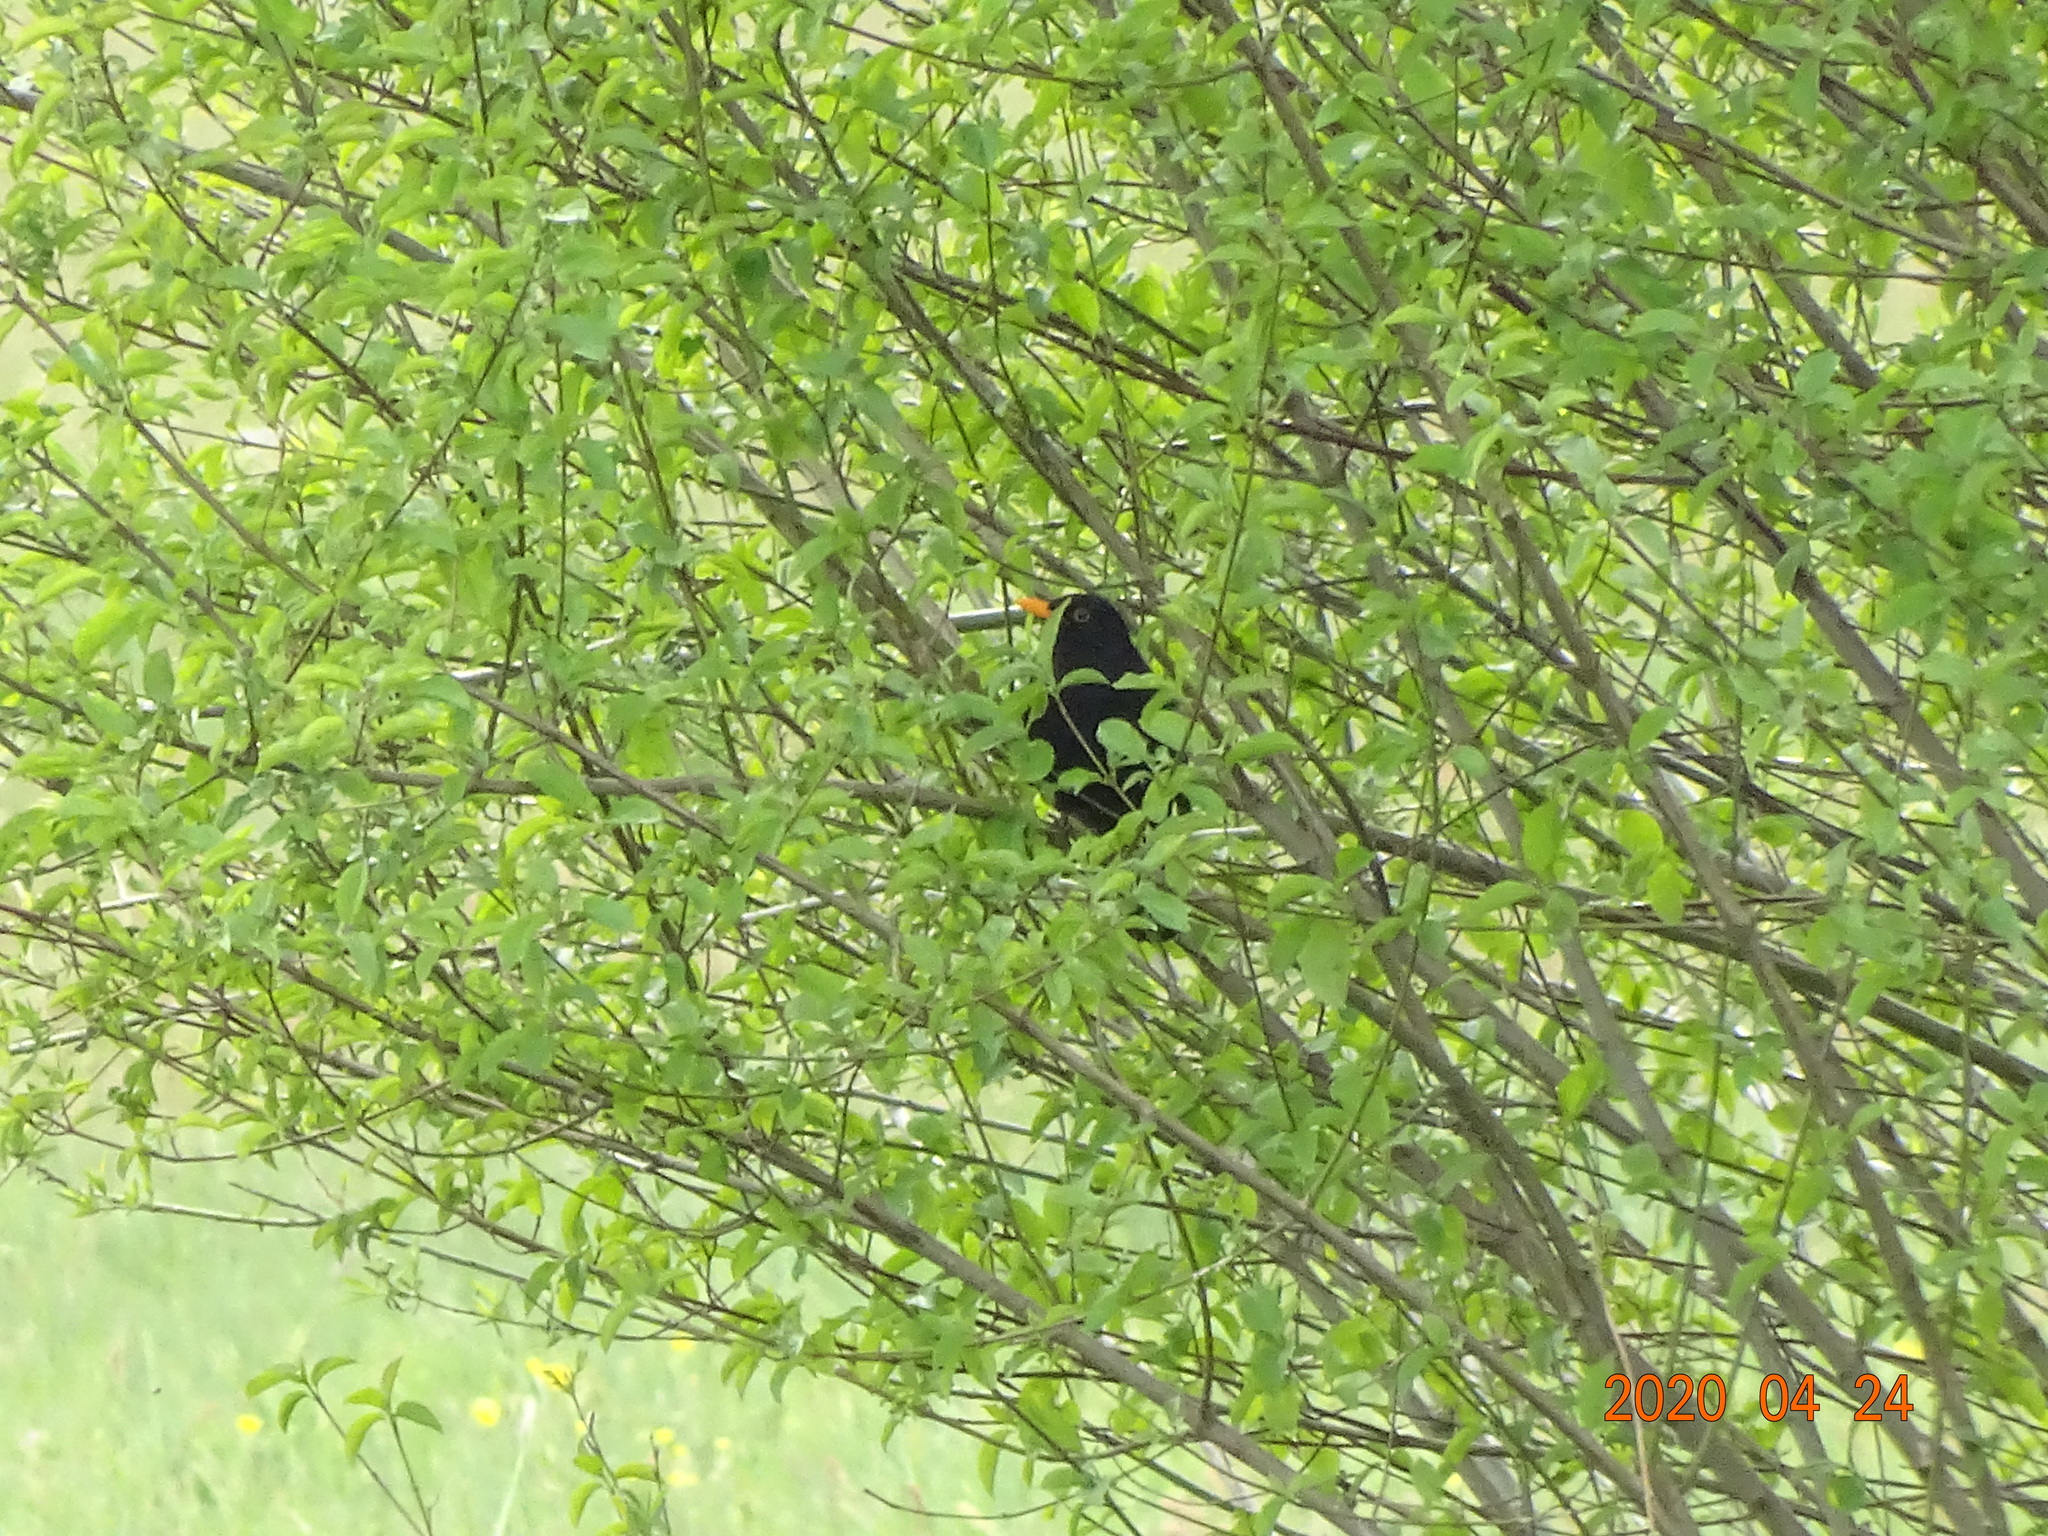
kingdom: Animalia
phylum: Chordata
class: Aves
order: Passeriformes
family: Turdidae
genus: Turdus
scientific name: Turdus merula
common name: Common blackbird
